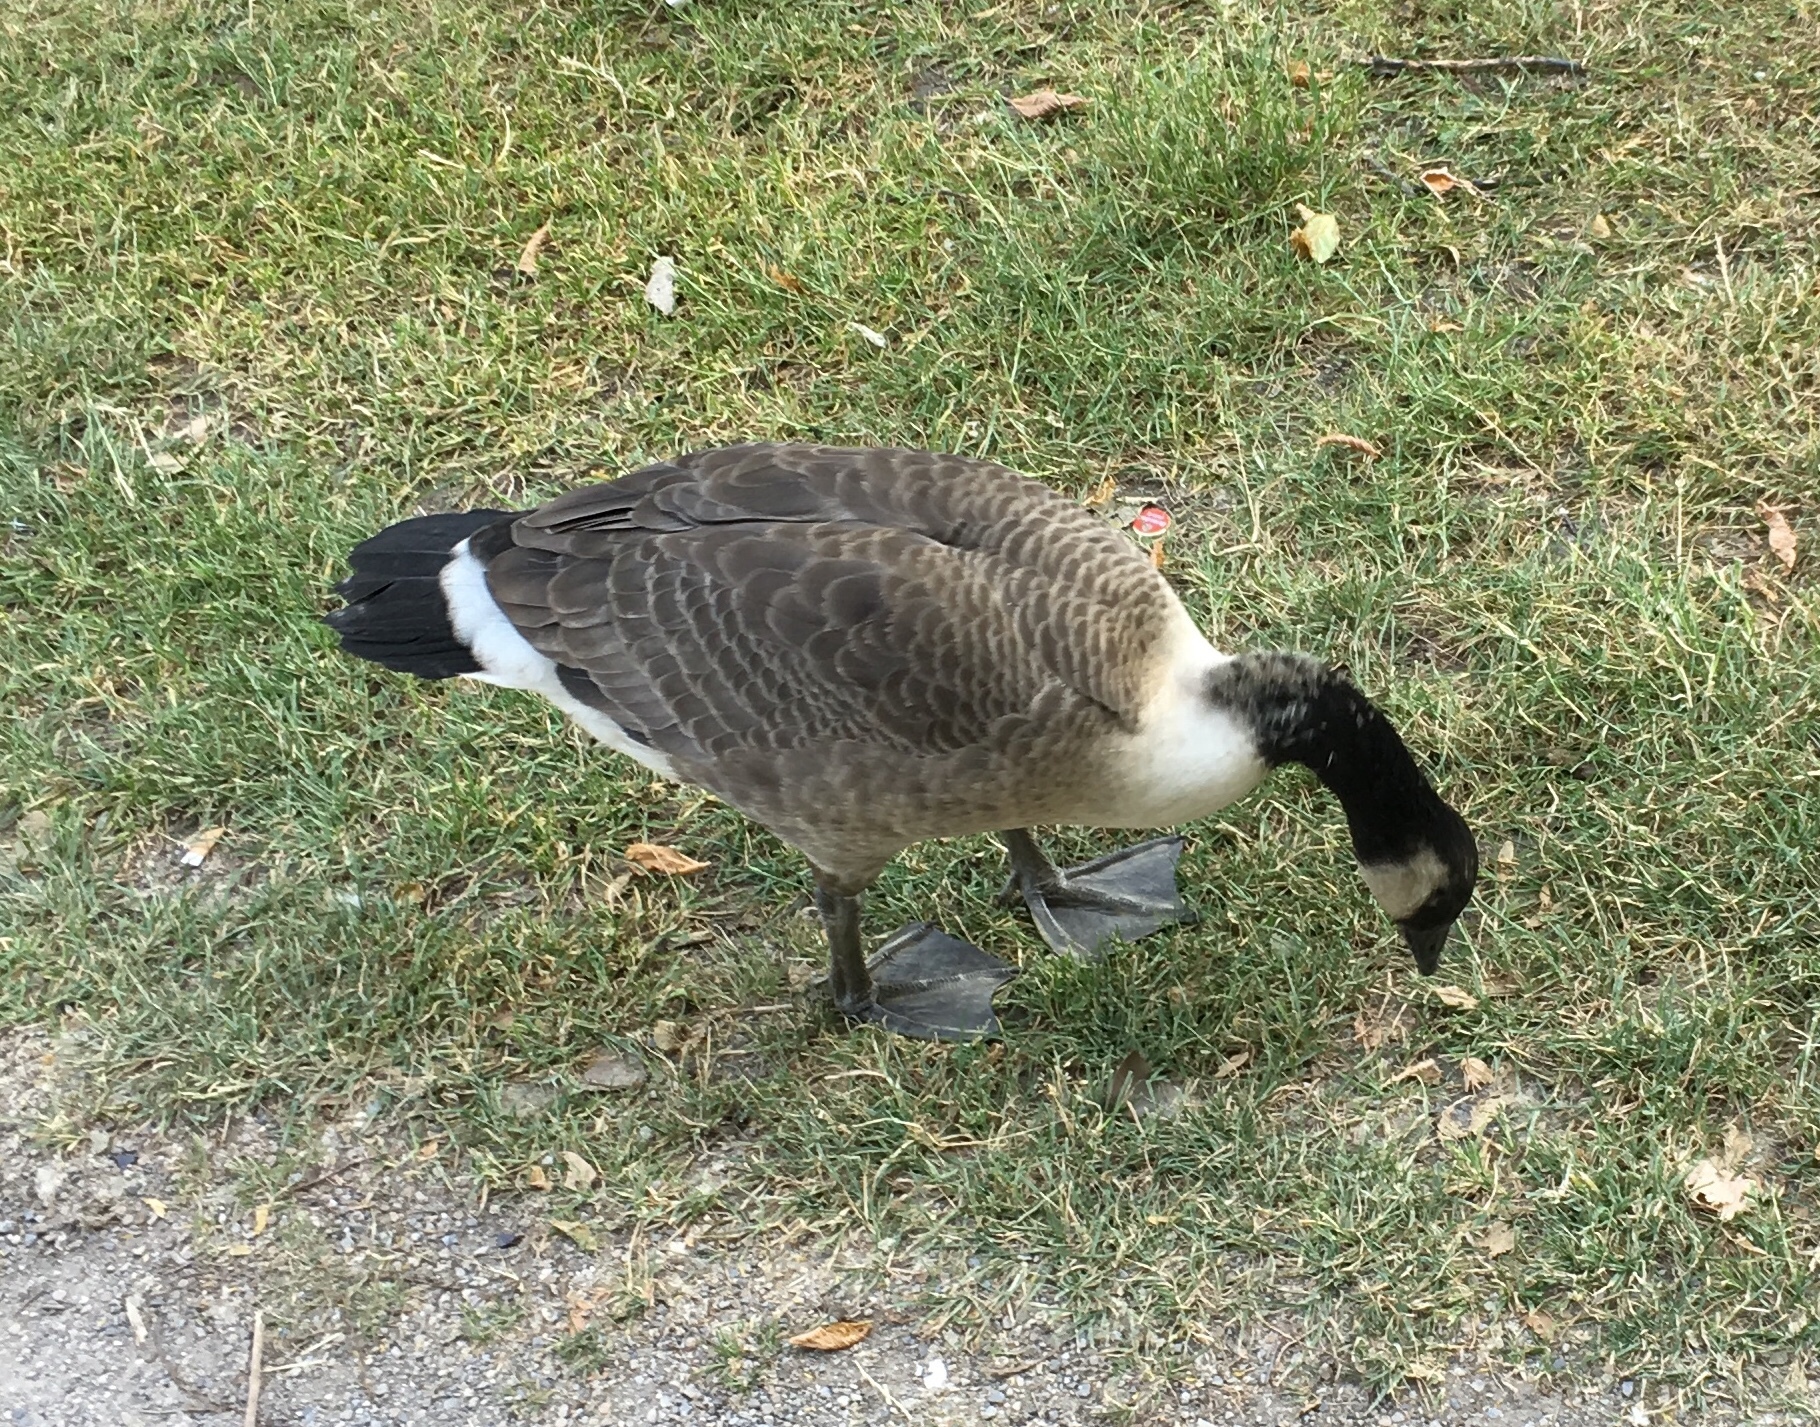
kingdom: Animalia
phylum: Chordata
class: Aves
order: Anseriformes
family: Anatidae
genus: Branta
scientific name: Branta canadensis
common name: Canada goose
